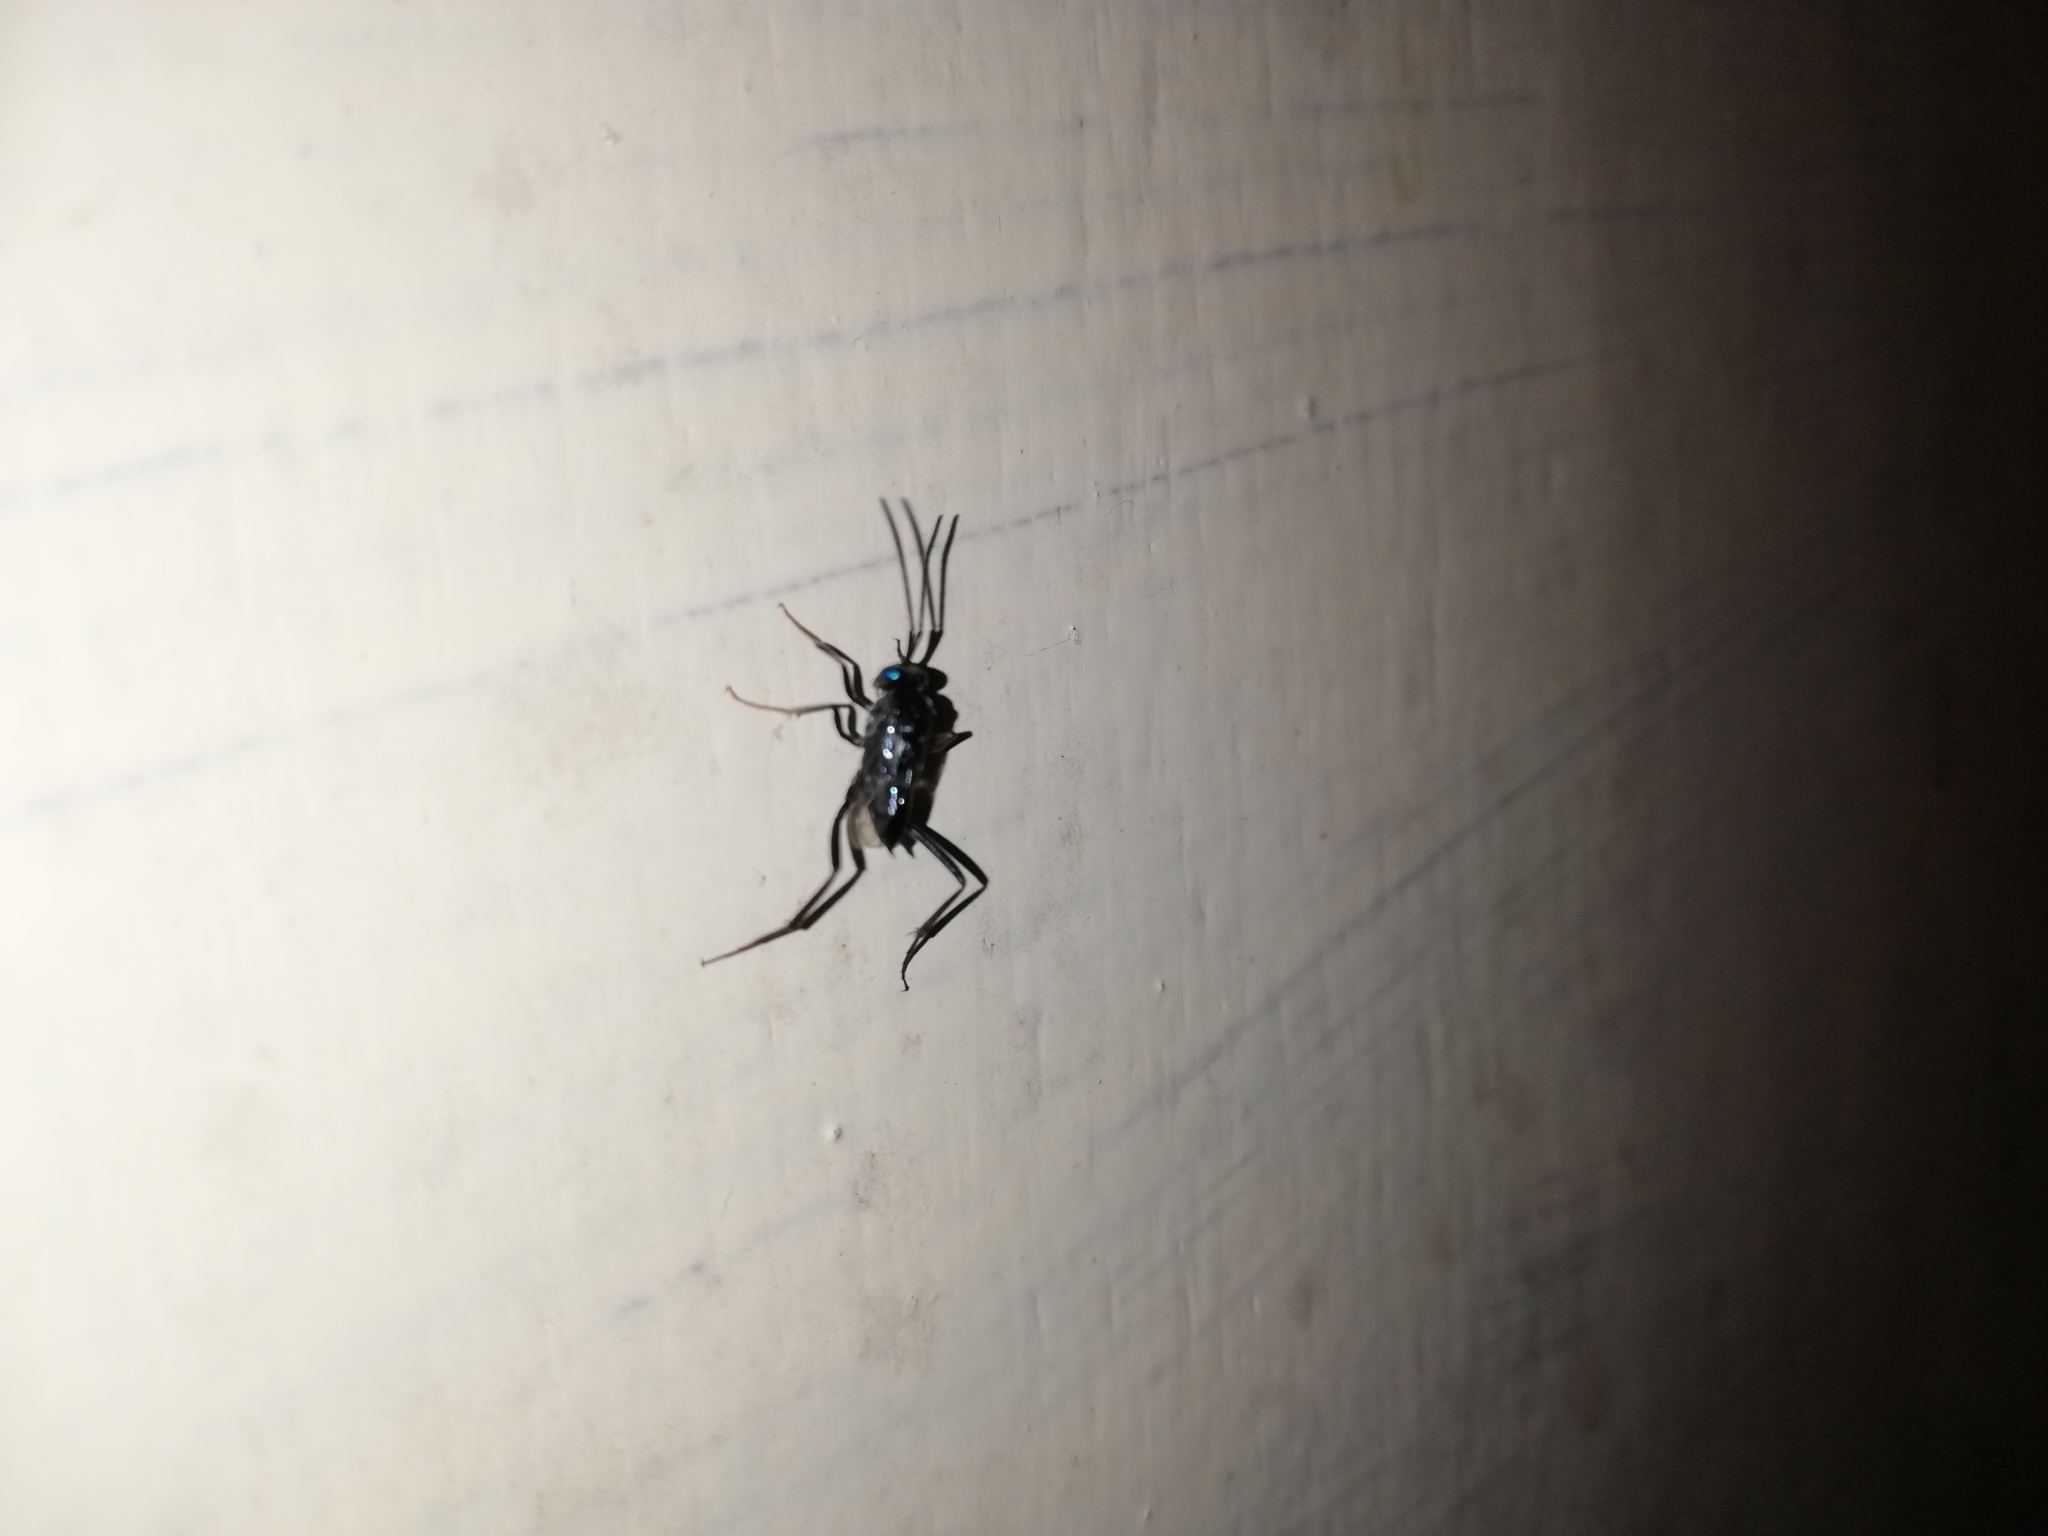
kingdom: Animalia
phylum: Arthropoda
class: Insecta
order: Hymenoptera
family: Evaniidae
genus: Evania
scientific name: Evania appendigaster
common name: Ensign wasp
